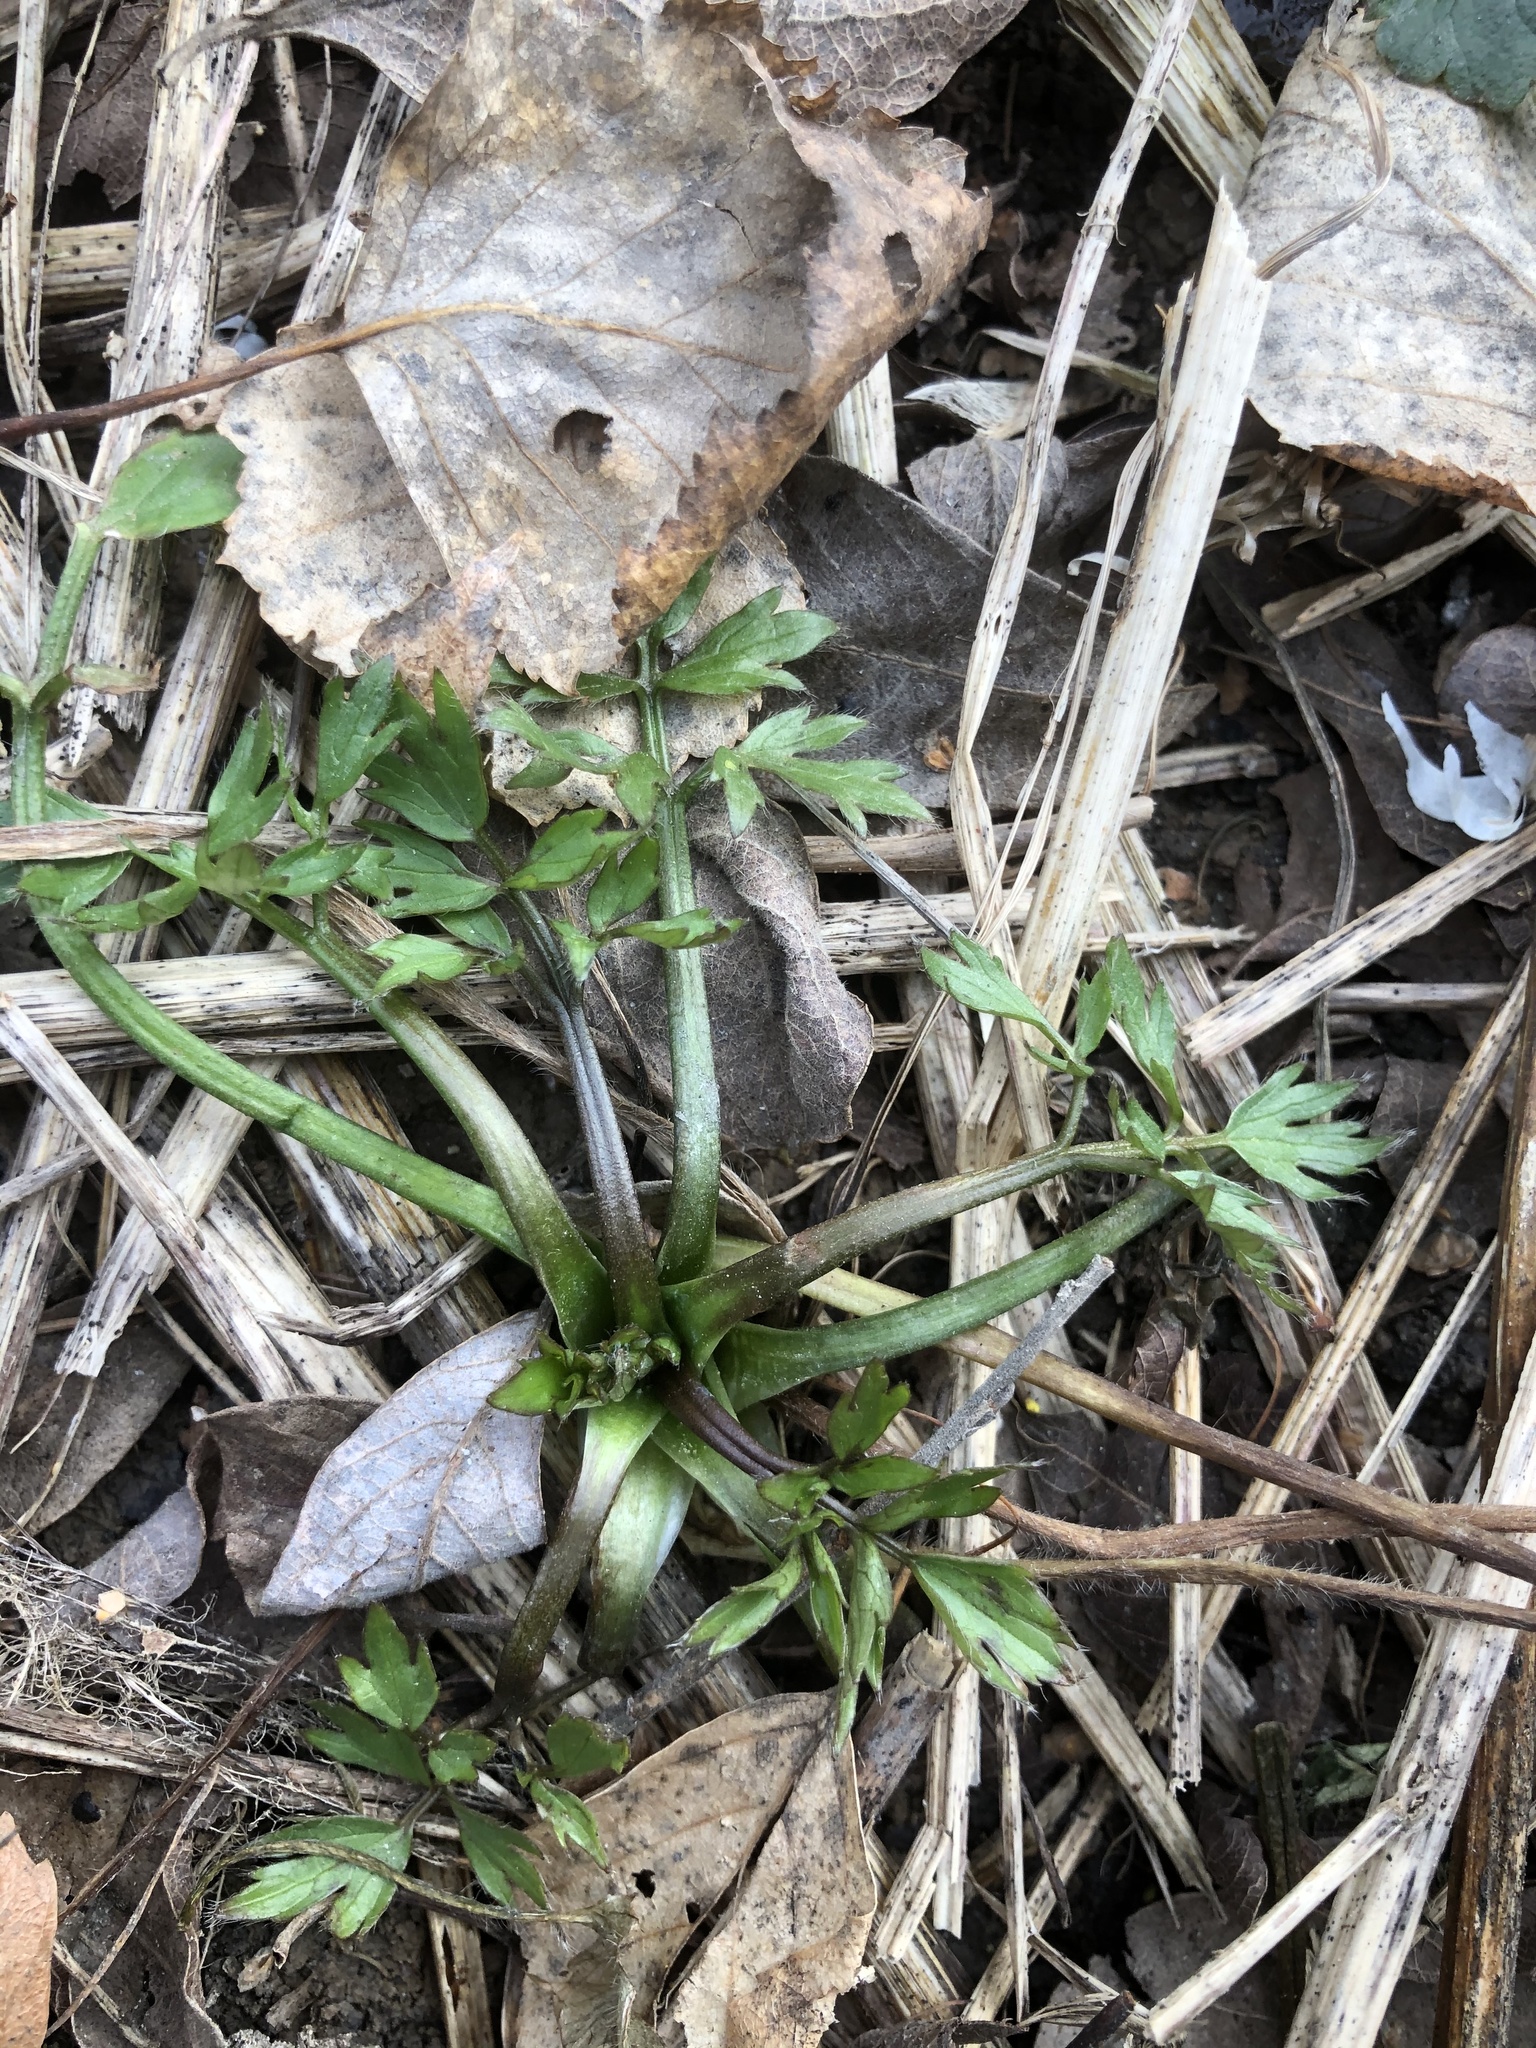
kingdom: Plantae
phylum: Tracheophyta
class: Magnoliopsida
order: Ranunculales
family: Ranunculaceae
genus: Ranunculus
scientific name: Ranunculus repens
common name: Creeping buttercup
